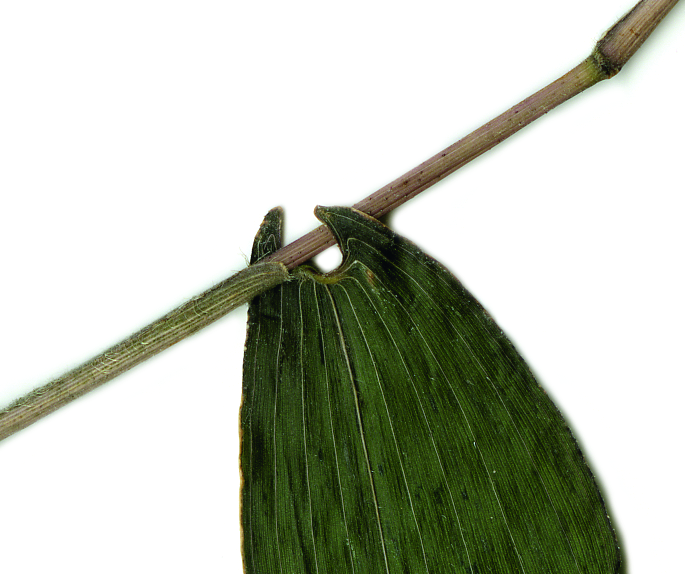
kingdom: Plantae
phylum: Tracheophyta
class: Liliopsida
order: Poales
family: Poaceae
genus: Humbertochloa
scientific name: Humbertochloa bambusiuscula
